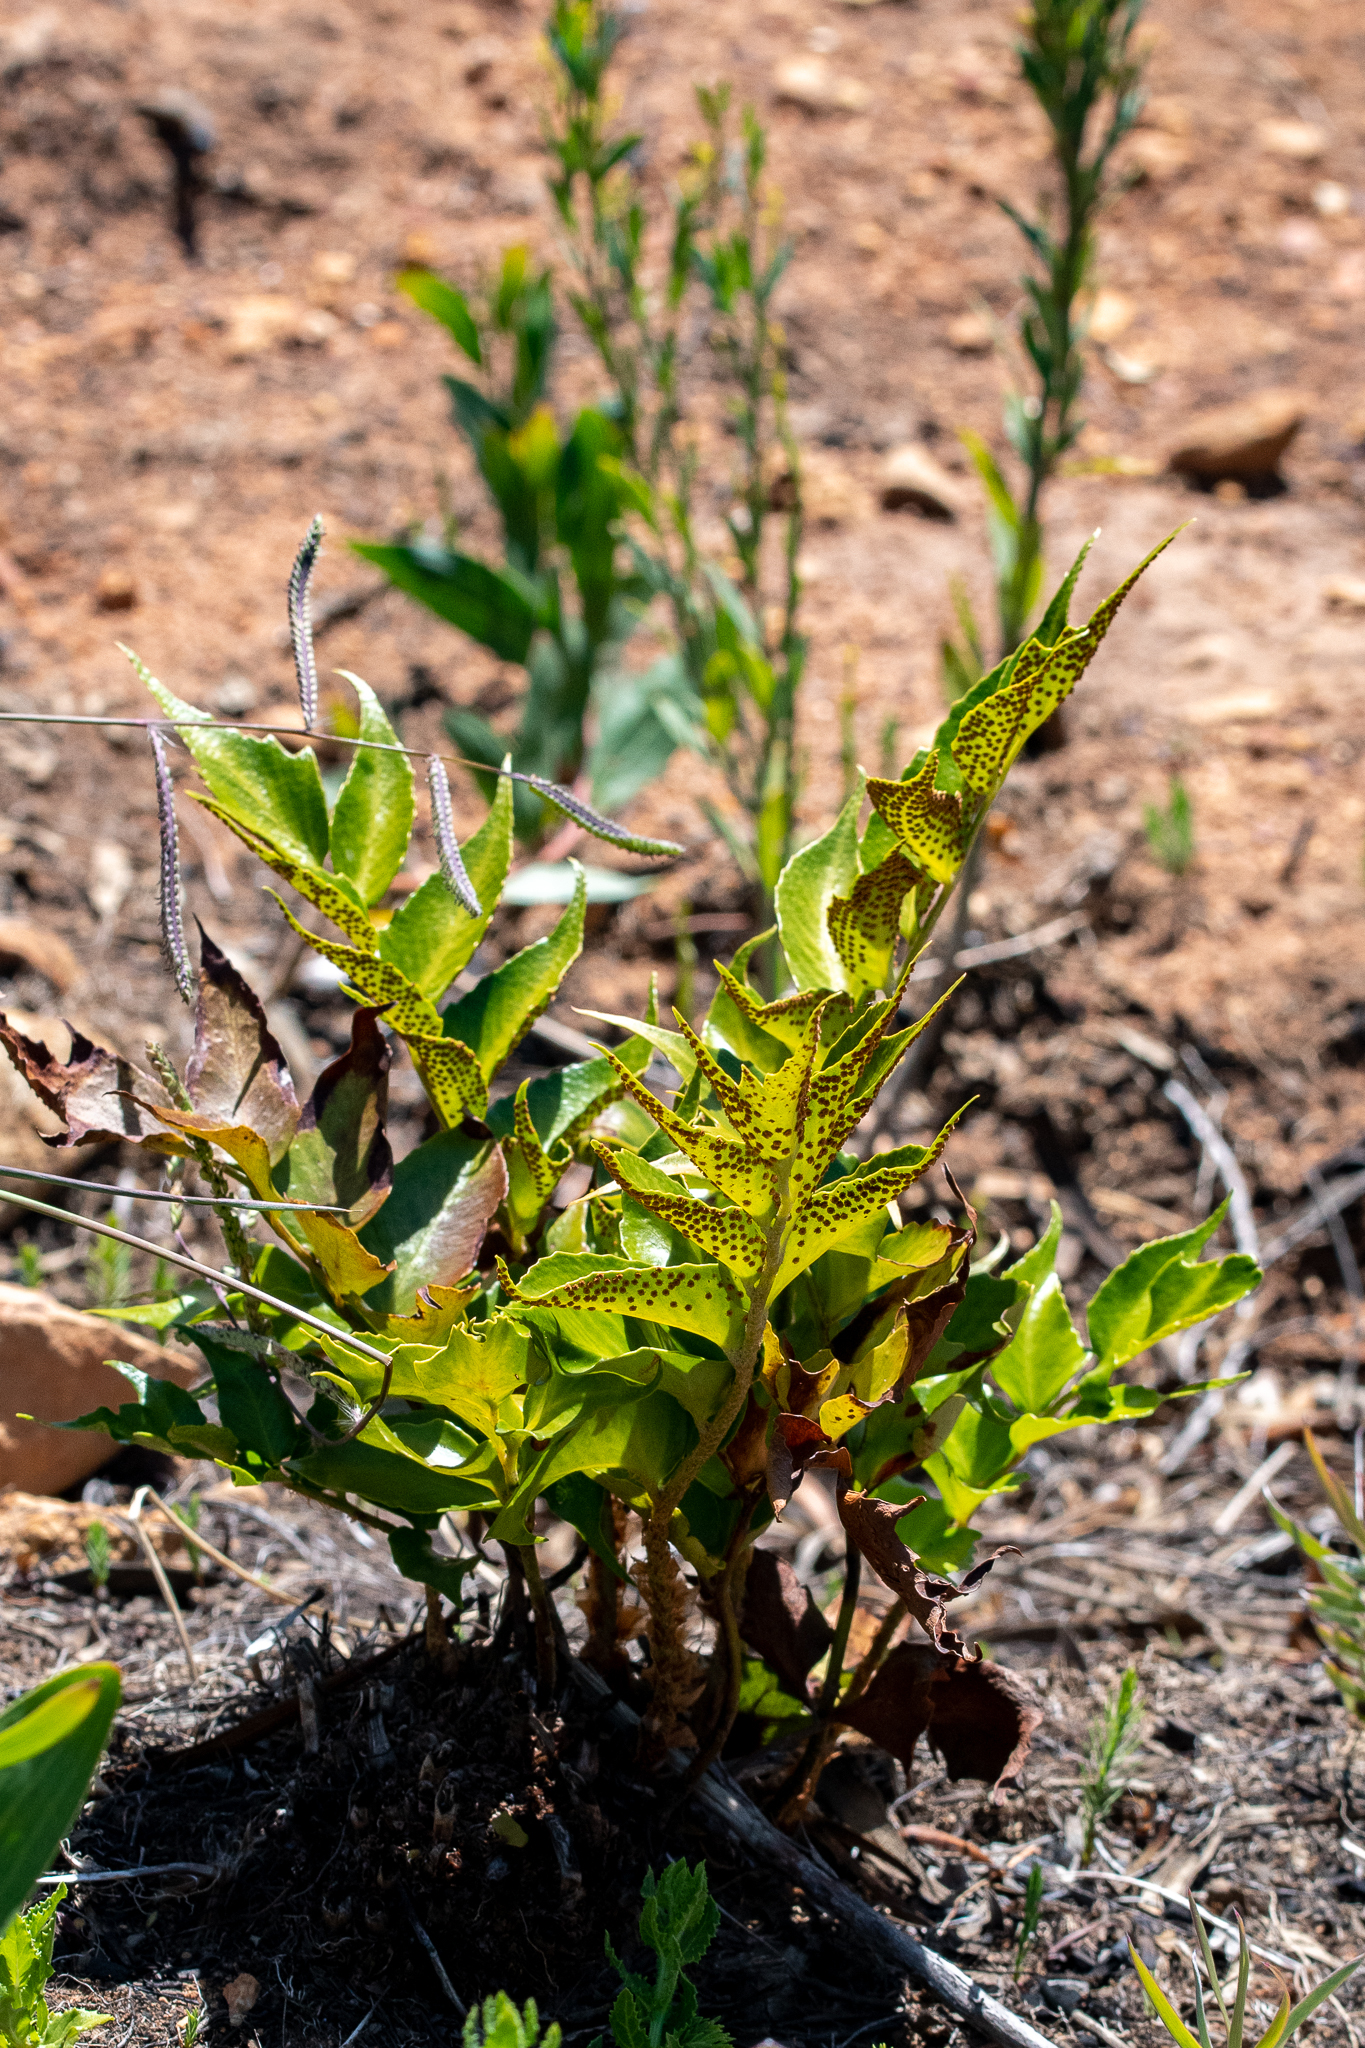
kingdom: Plantae
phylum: Tracheophyta
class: Polypodiopsida
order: Polypodiales
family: Dryopteridaceae
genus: Cyrtomium
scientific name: Cyrtomium falcatum
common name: House holly-fern
